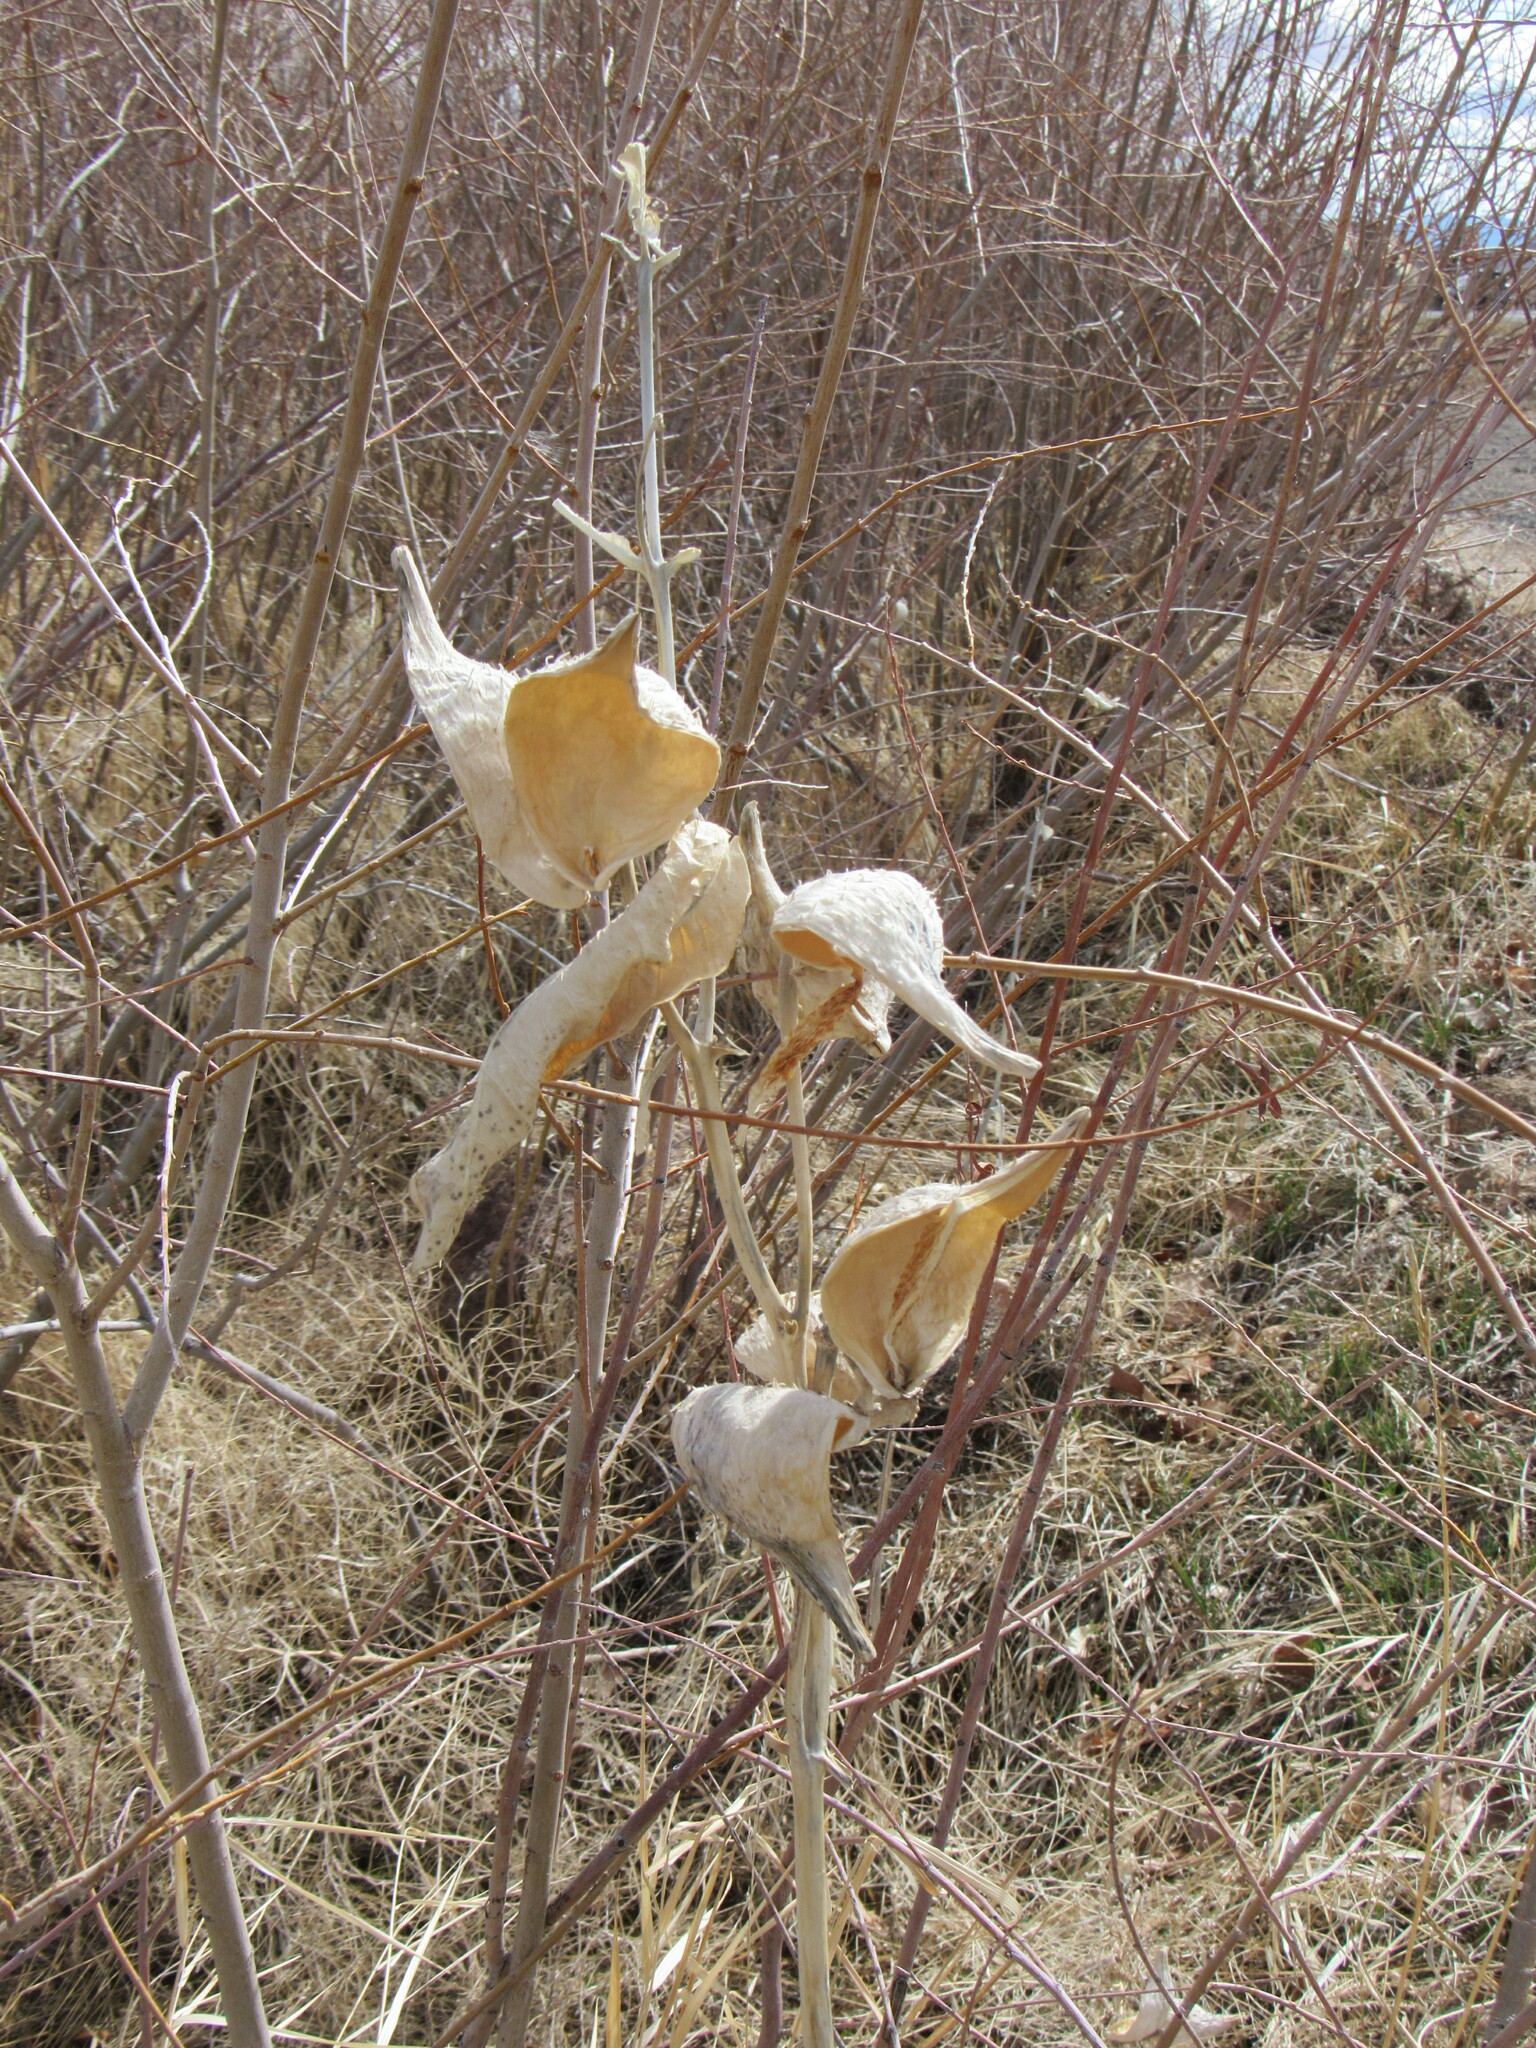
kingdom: Plantae
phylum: Tracheophyta
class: Magnoliopsida
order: Gentianales
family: Apocynaceae
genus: Asclepias
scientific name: Asclepias speciosa
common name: Showy milkweed
